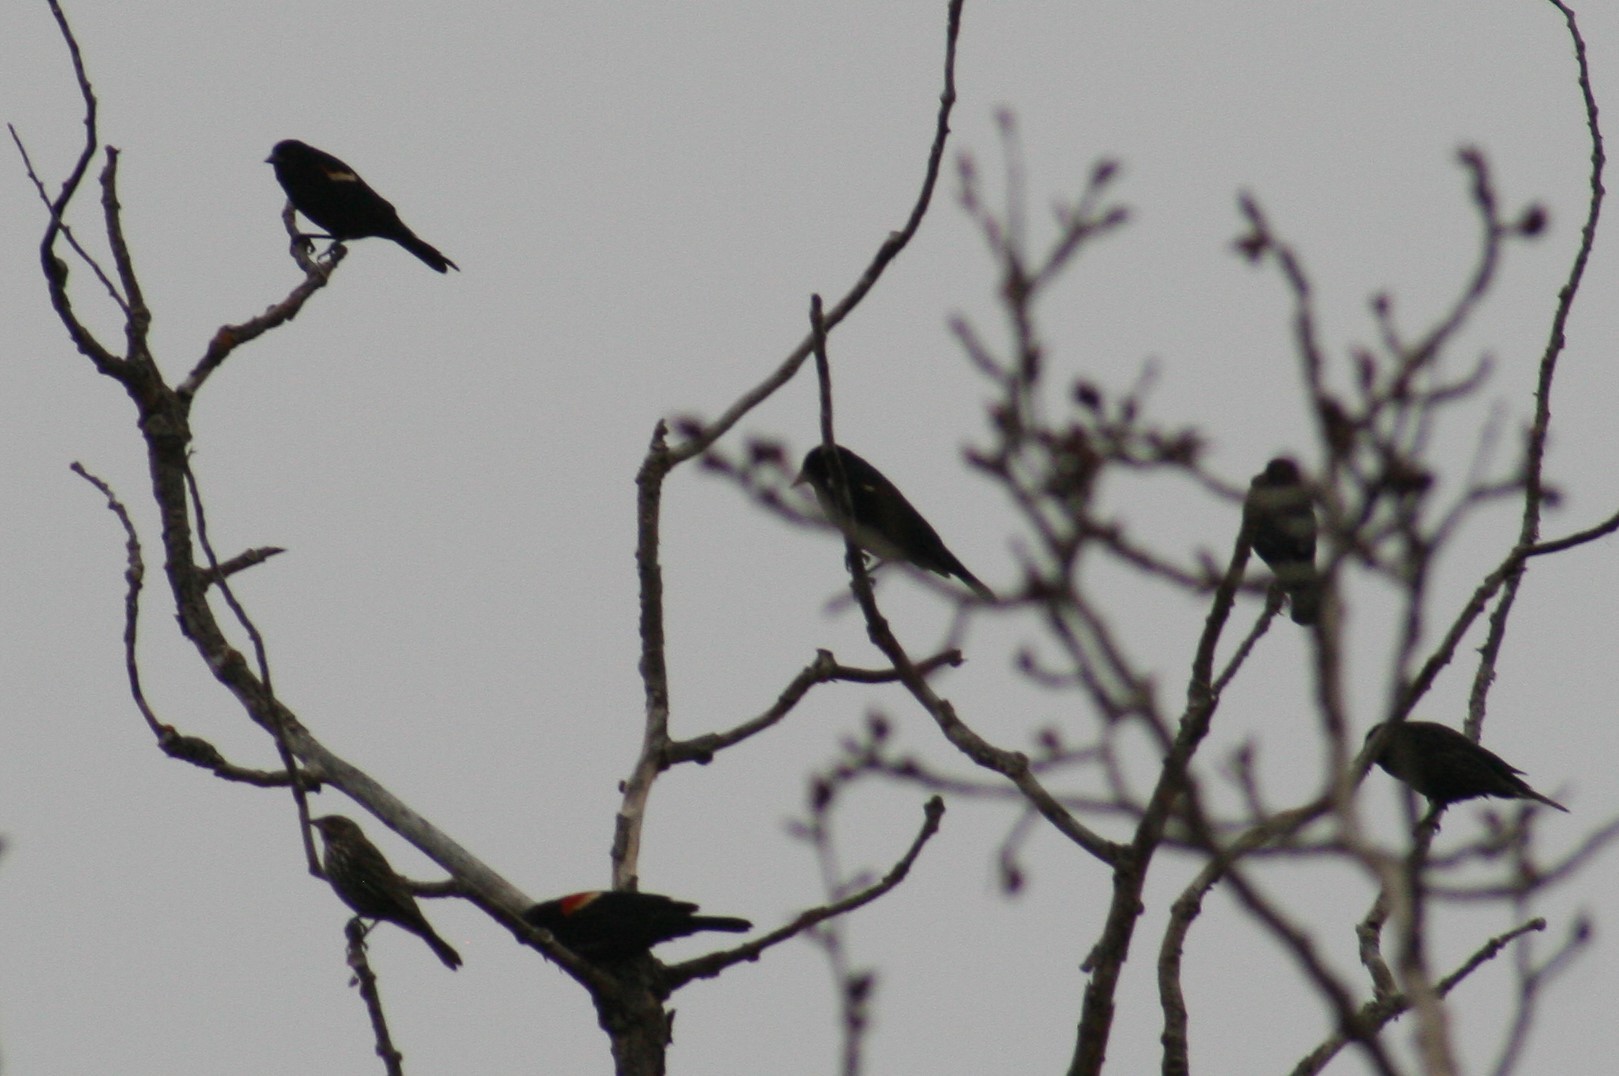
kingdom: Animalia
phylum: Chordata
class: Aves
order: Passeriformes
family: Icteridae
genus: Agelaius
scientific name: Agelaius phoeniceus
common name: Red-winged blackbird
